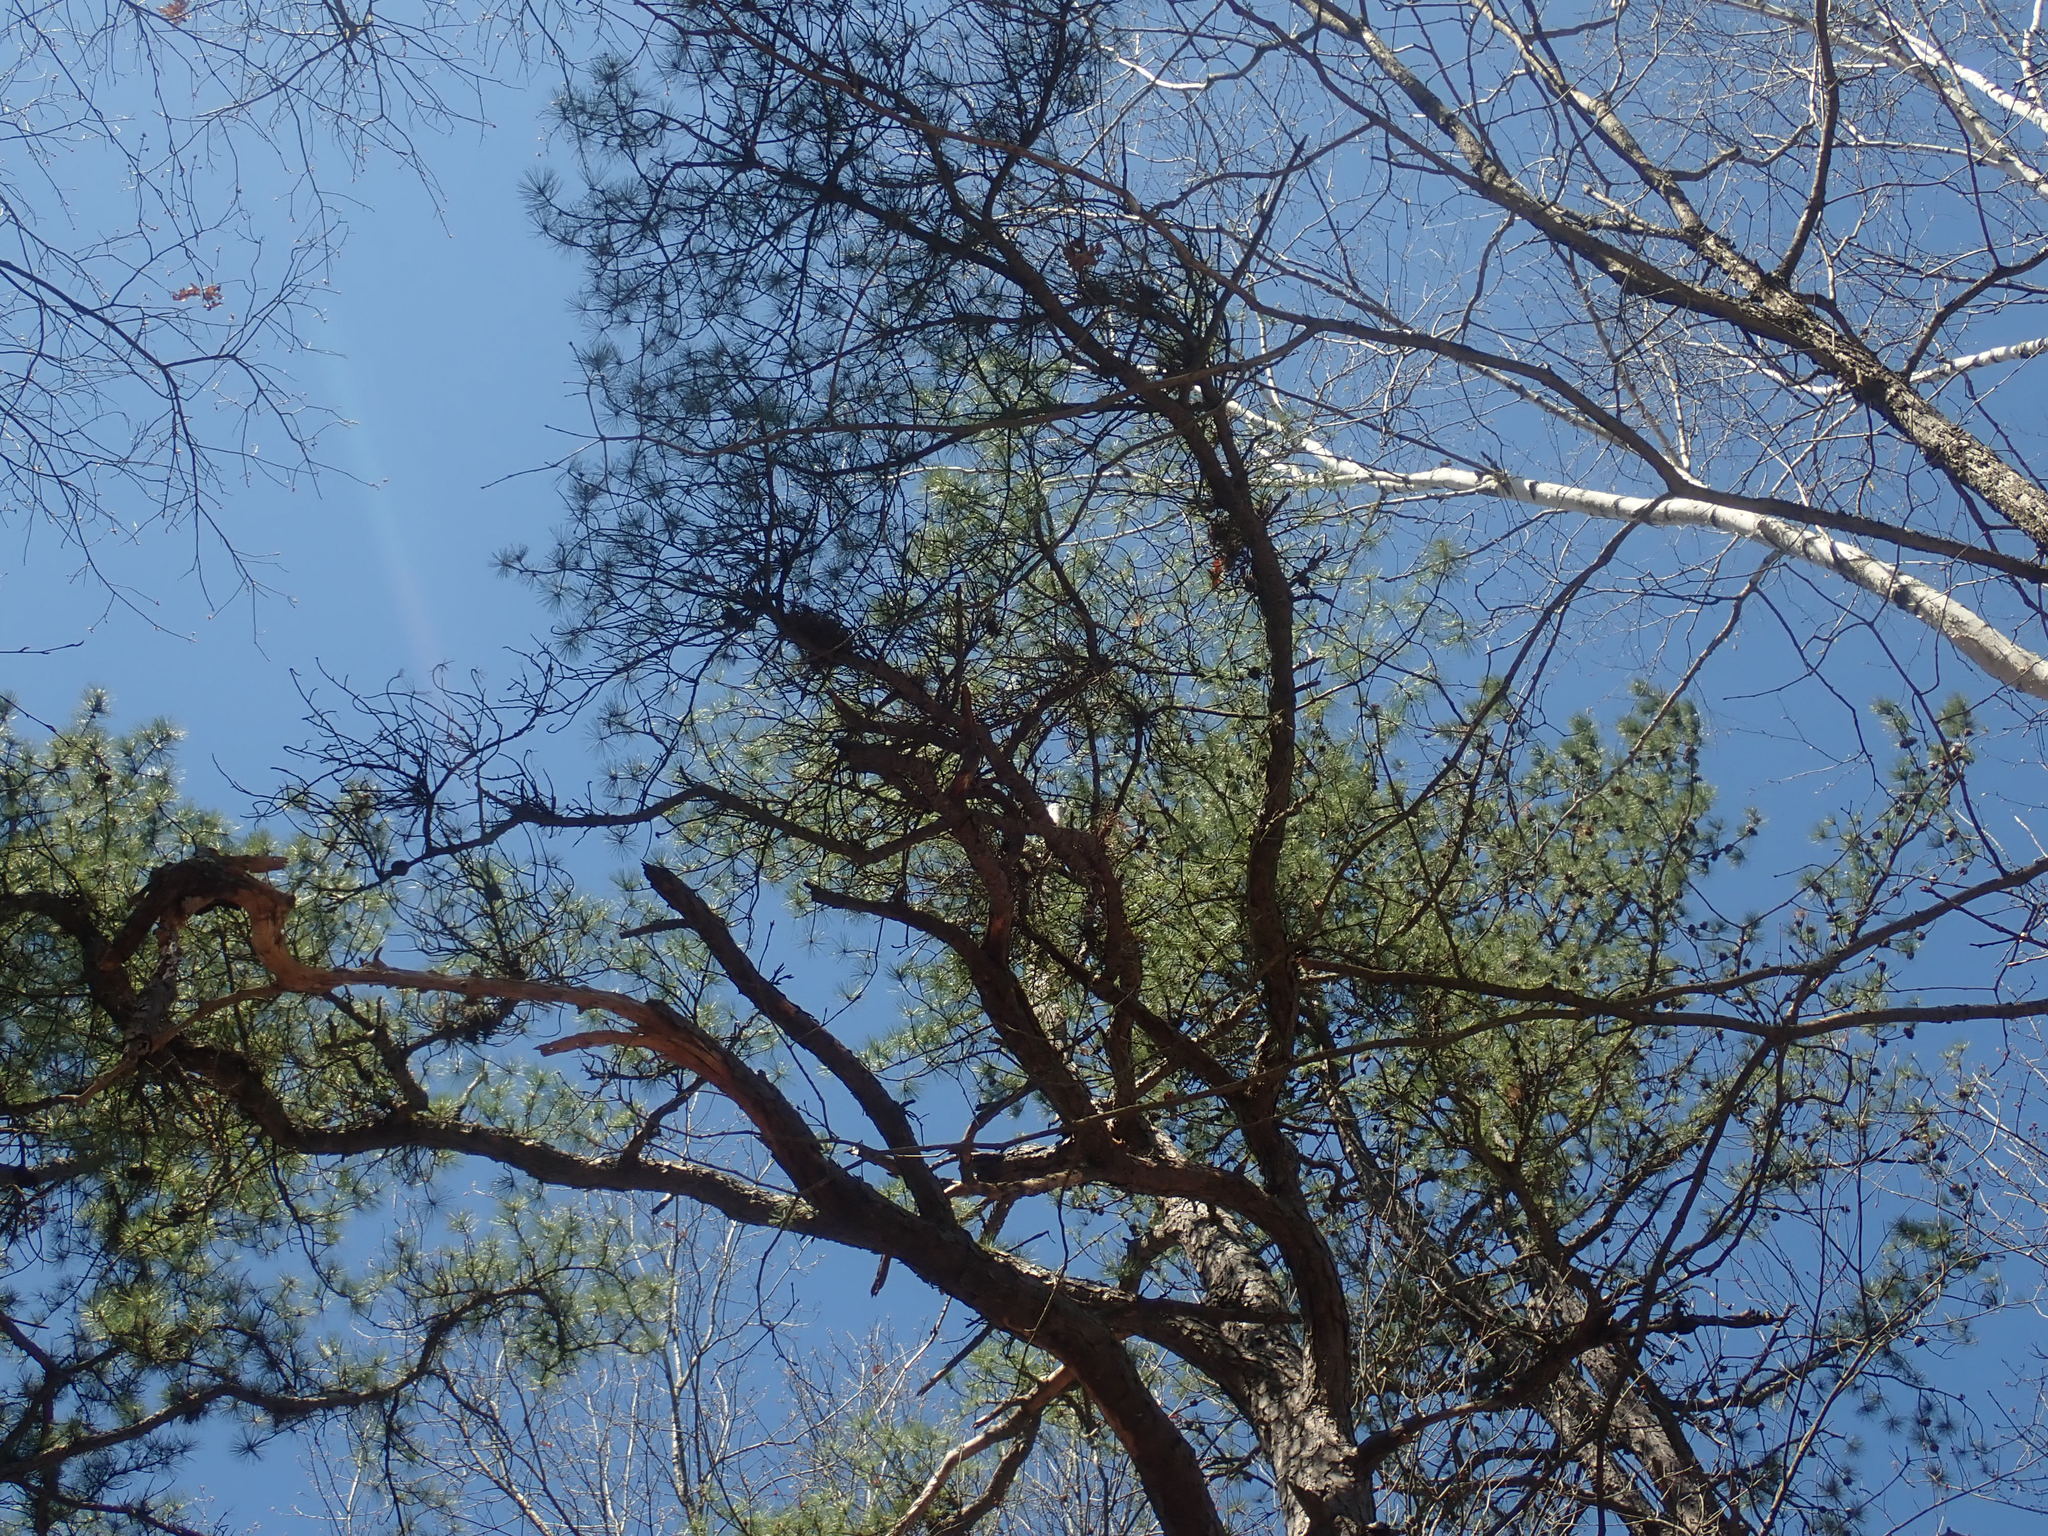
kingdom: Plantae
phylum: Tracheophyta
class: Pinopsida
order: Pinales
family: Pinaceae
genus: Pinus
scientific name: Pinus rigida
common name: Pitch pine
